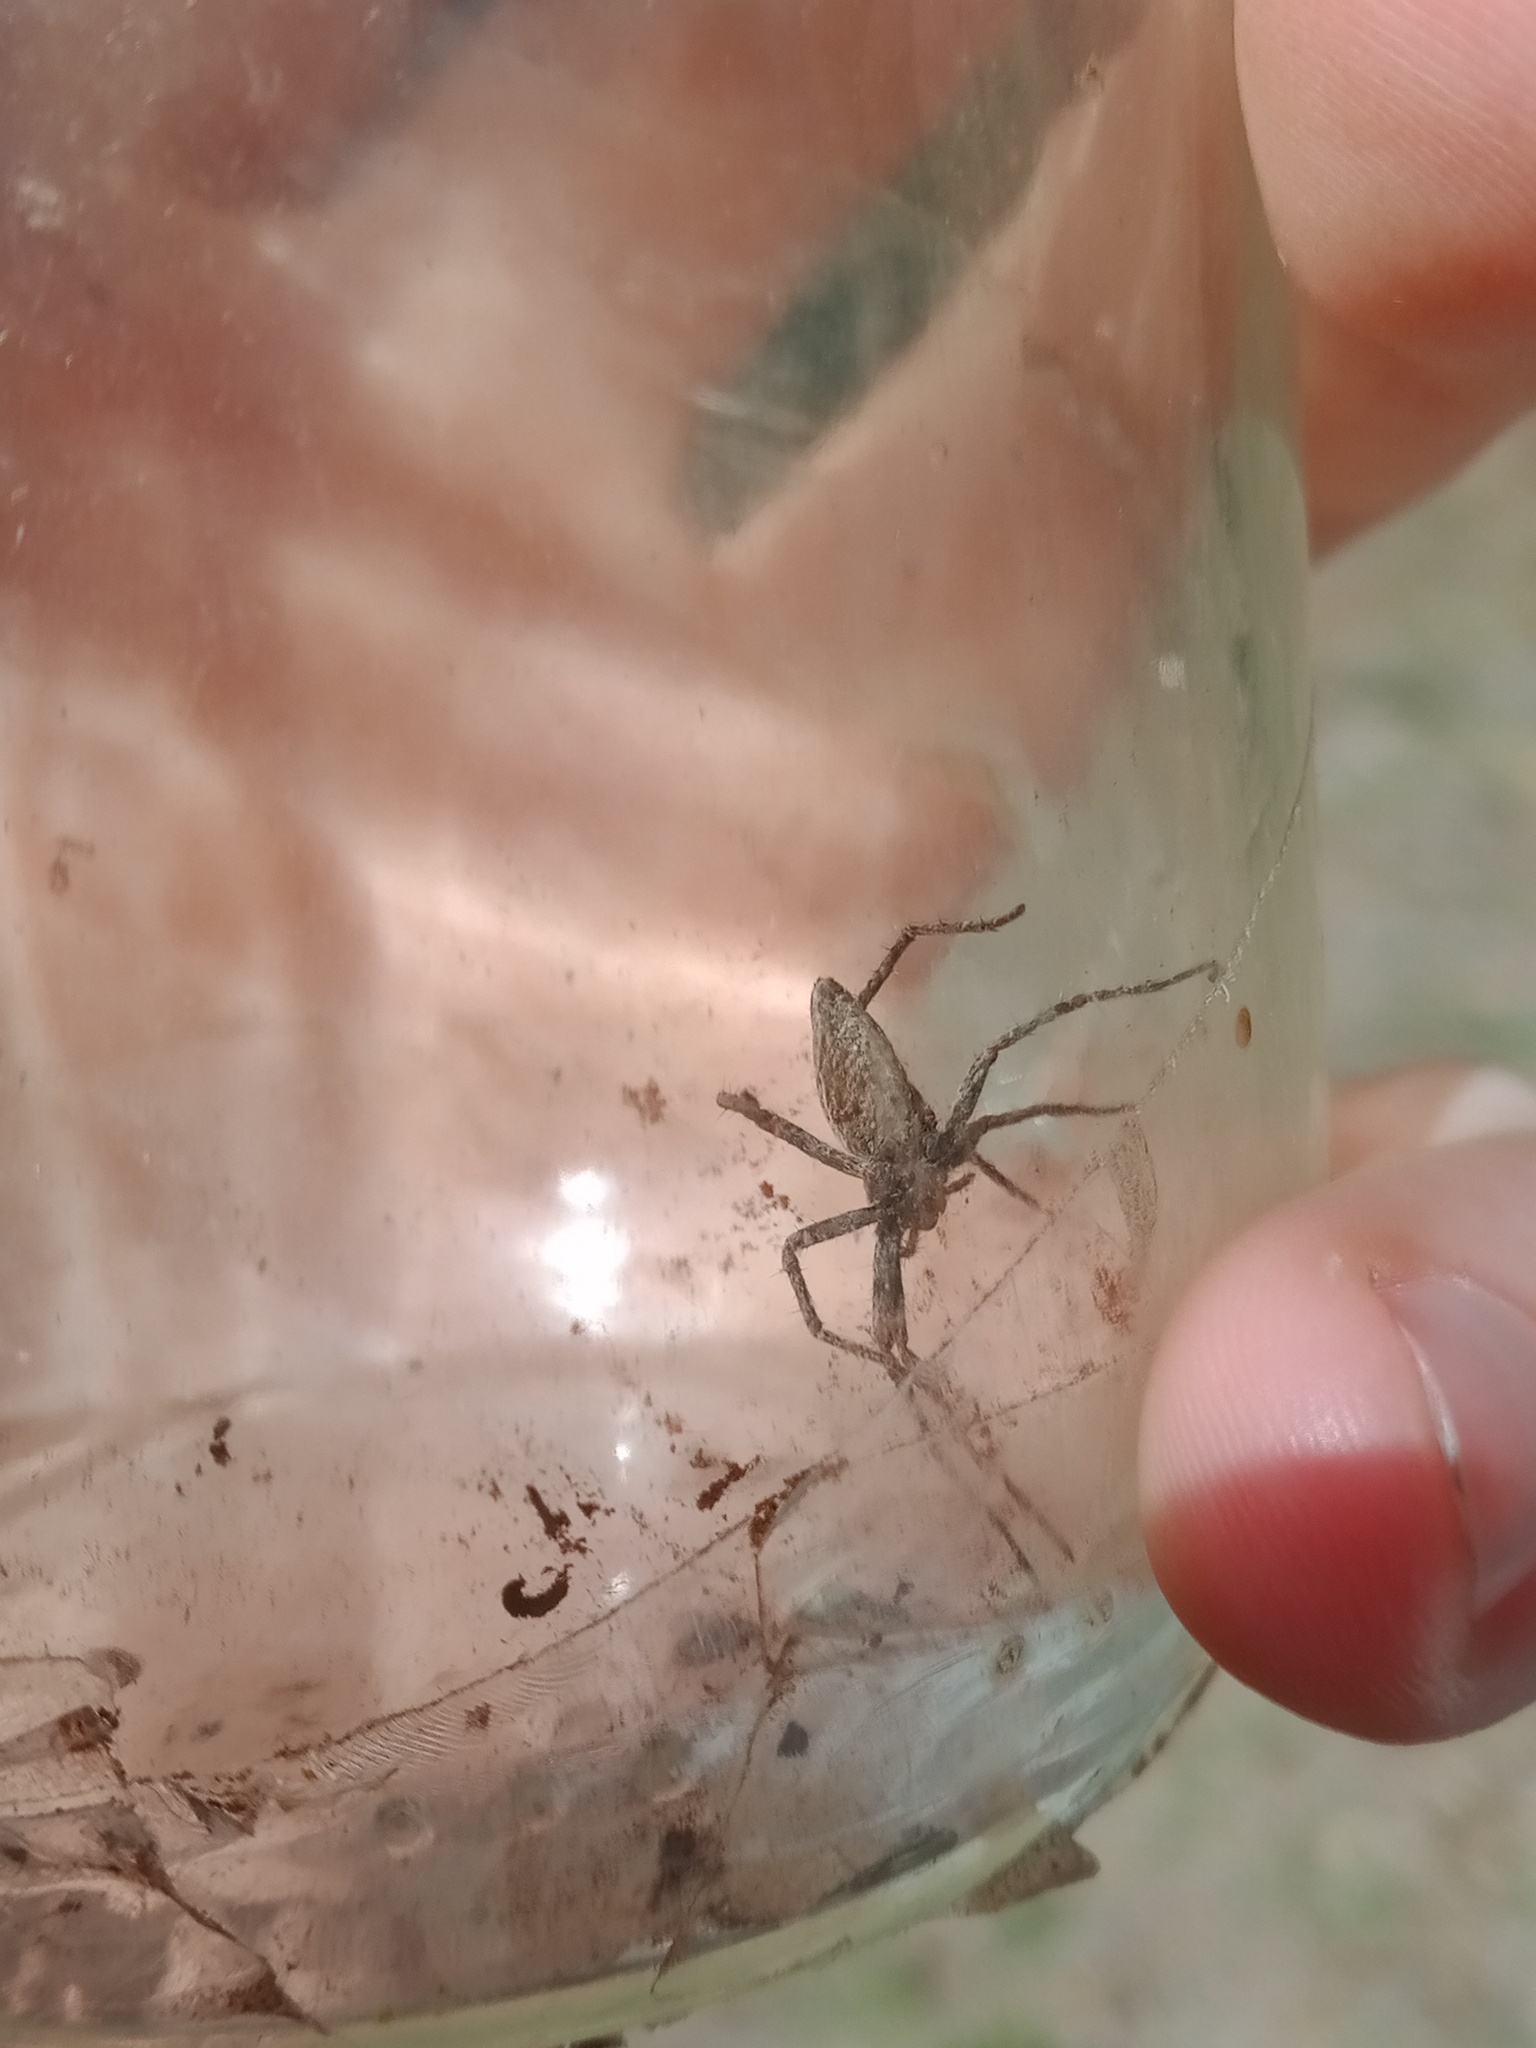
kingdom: Animalia
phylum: Arthropoda
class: Arachnida
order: Araneae
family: Pisauridae
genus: Pisaura
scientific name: Pisaura
